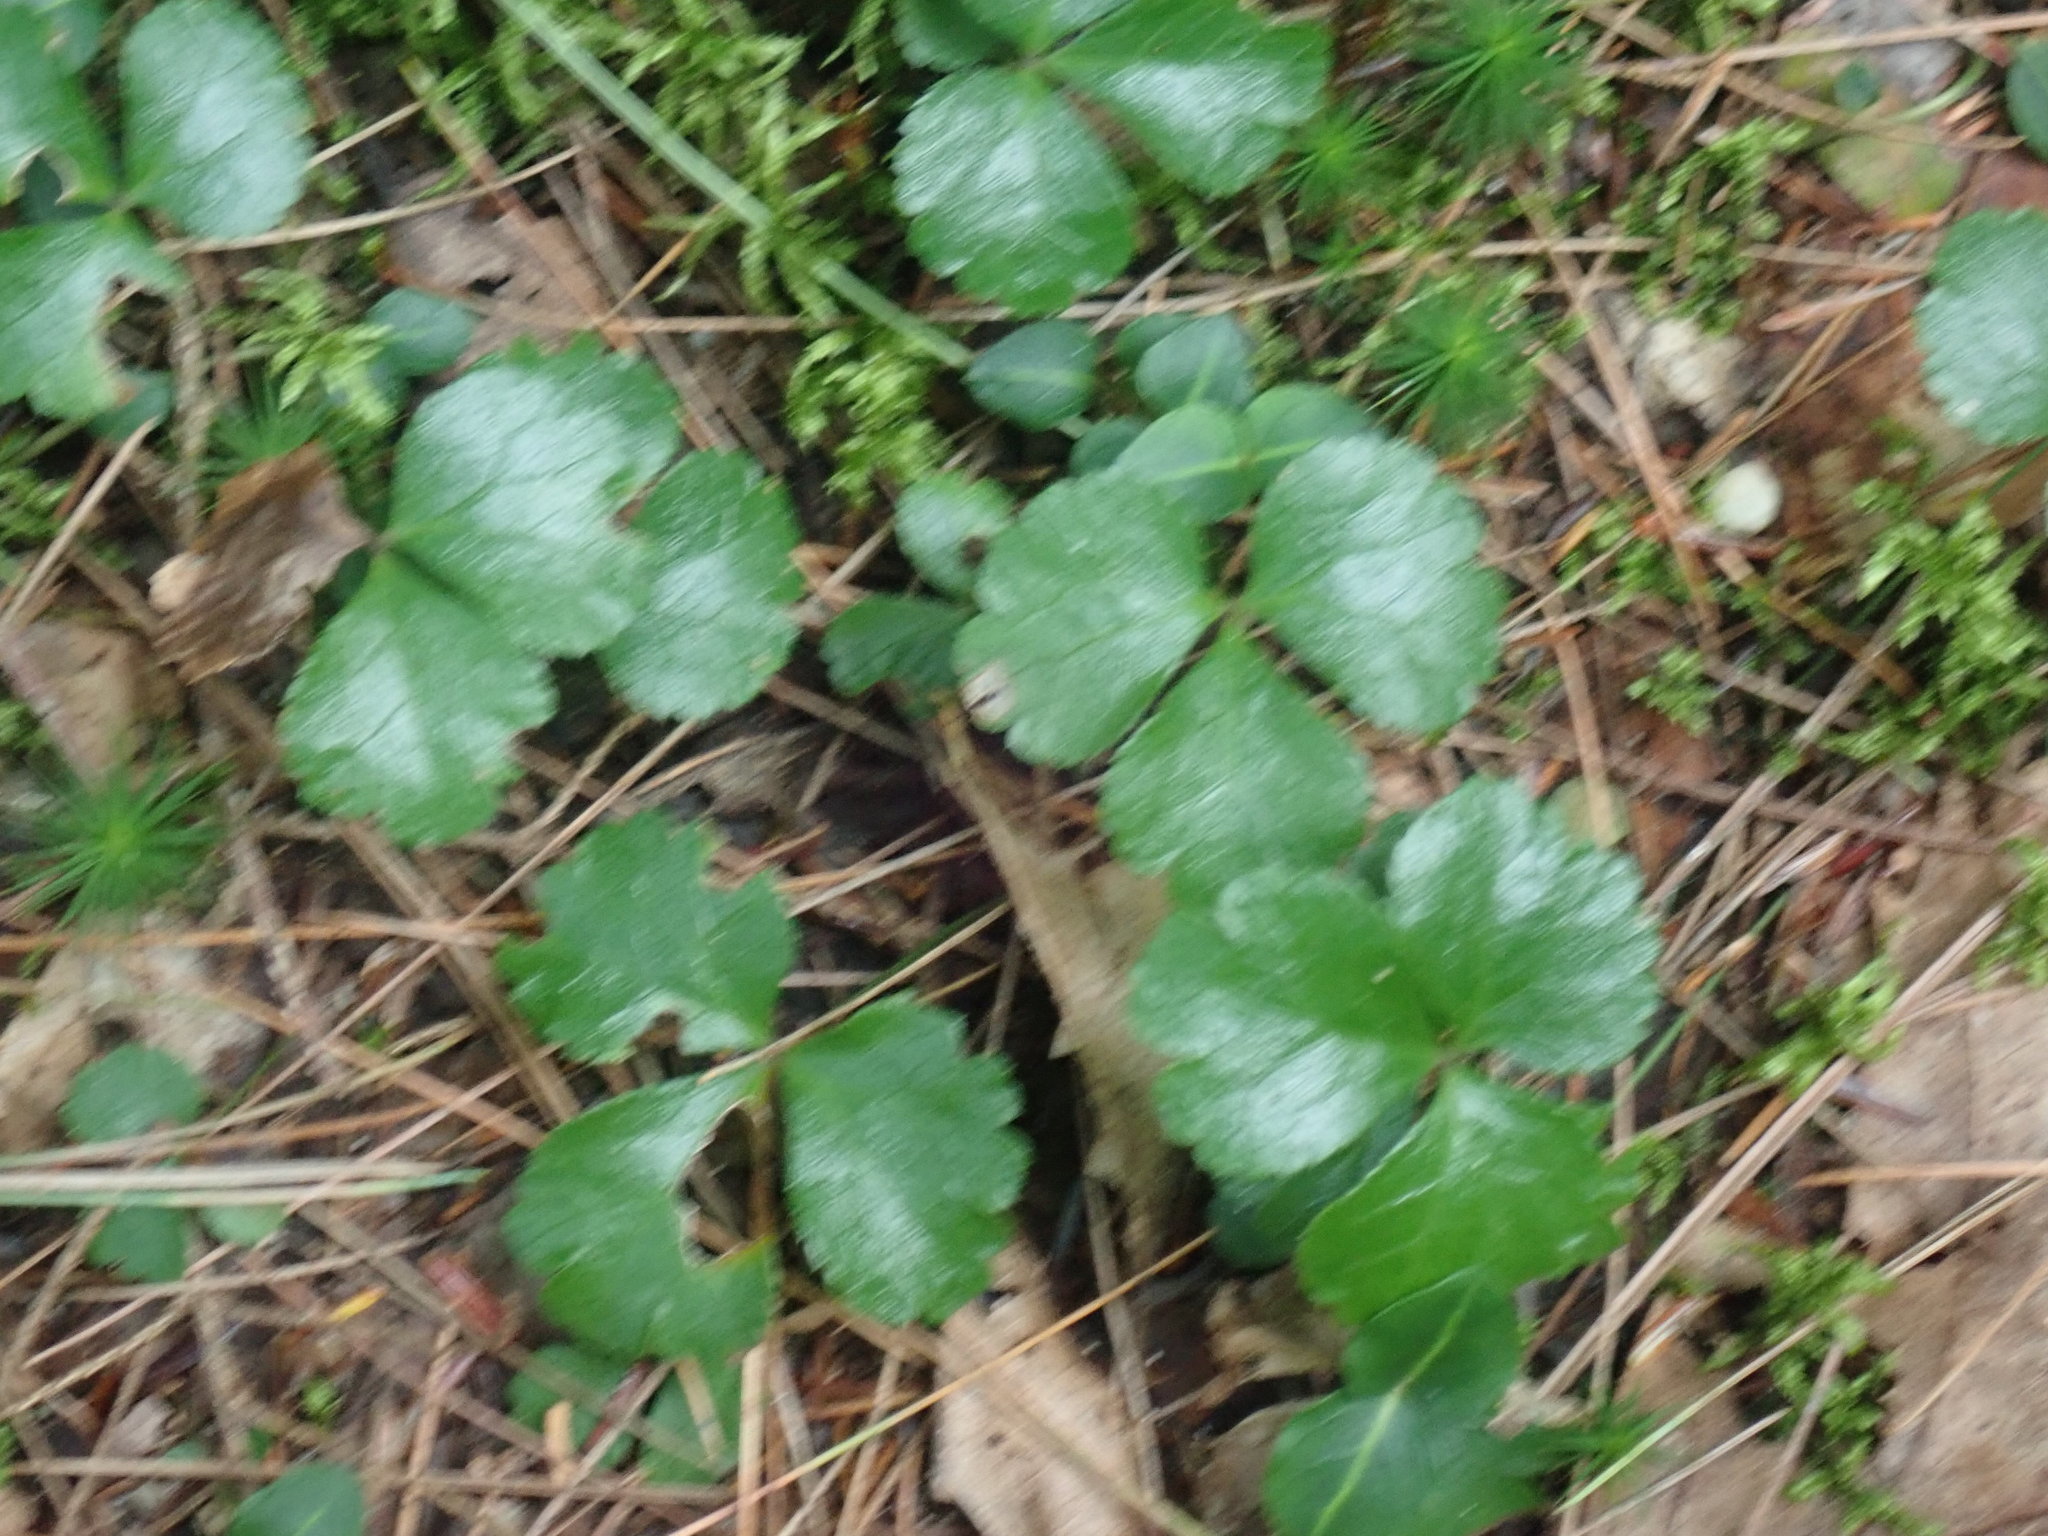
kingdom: Plantae
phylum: Tracheophyta
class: Magnoliopsida
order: Ranunculales
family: Ranunculaceae
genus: Coptis
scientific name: Coptis trifolia
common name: Canker-root
